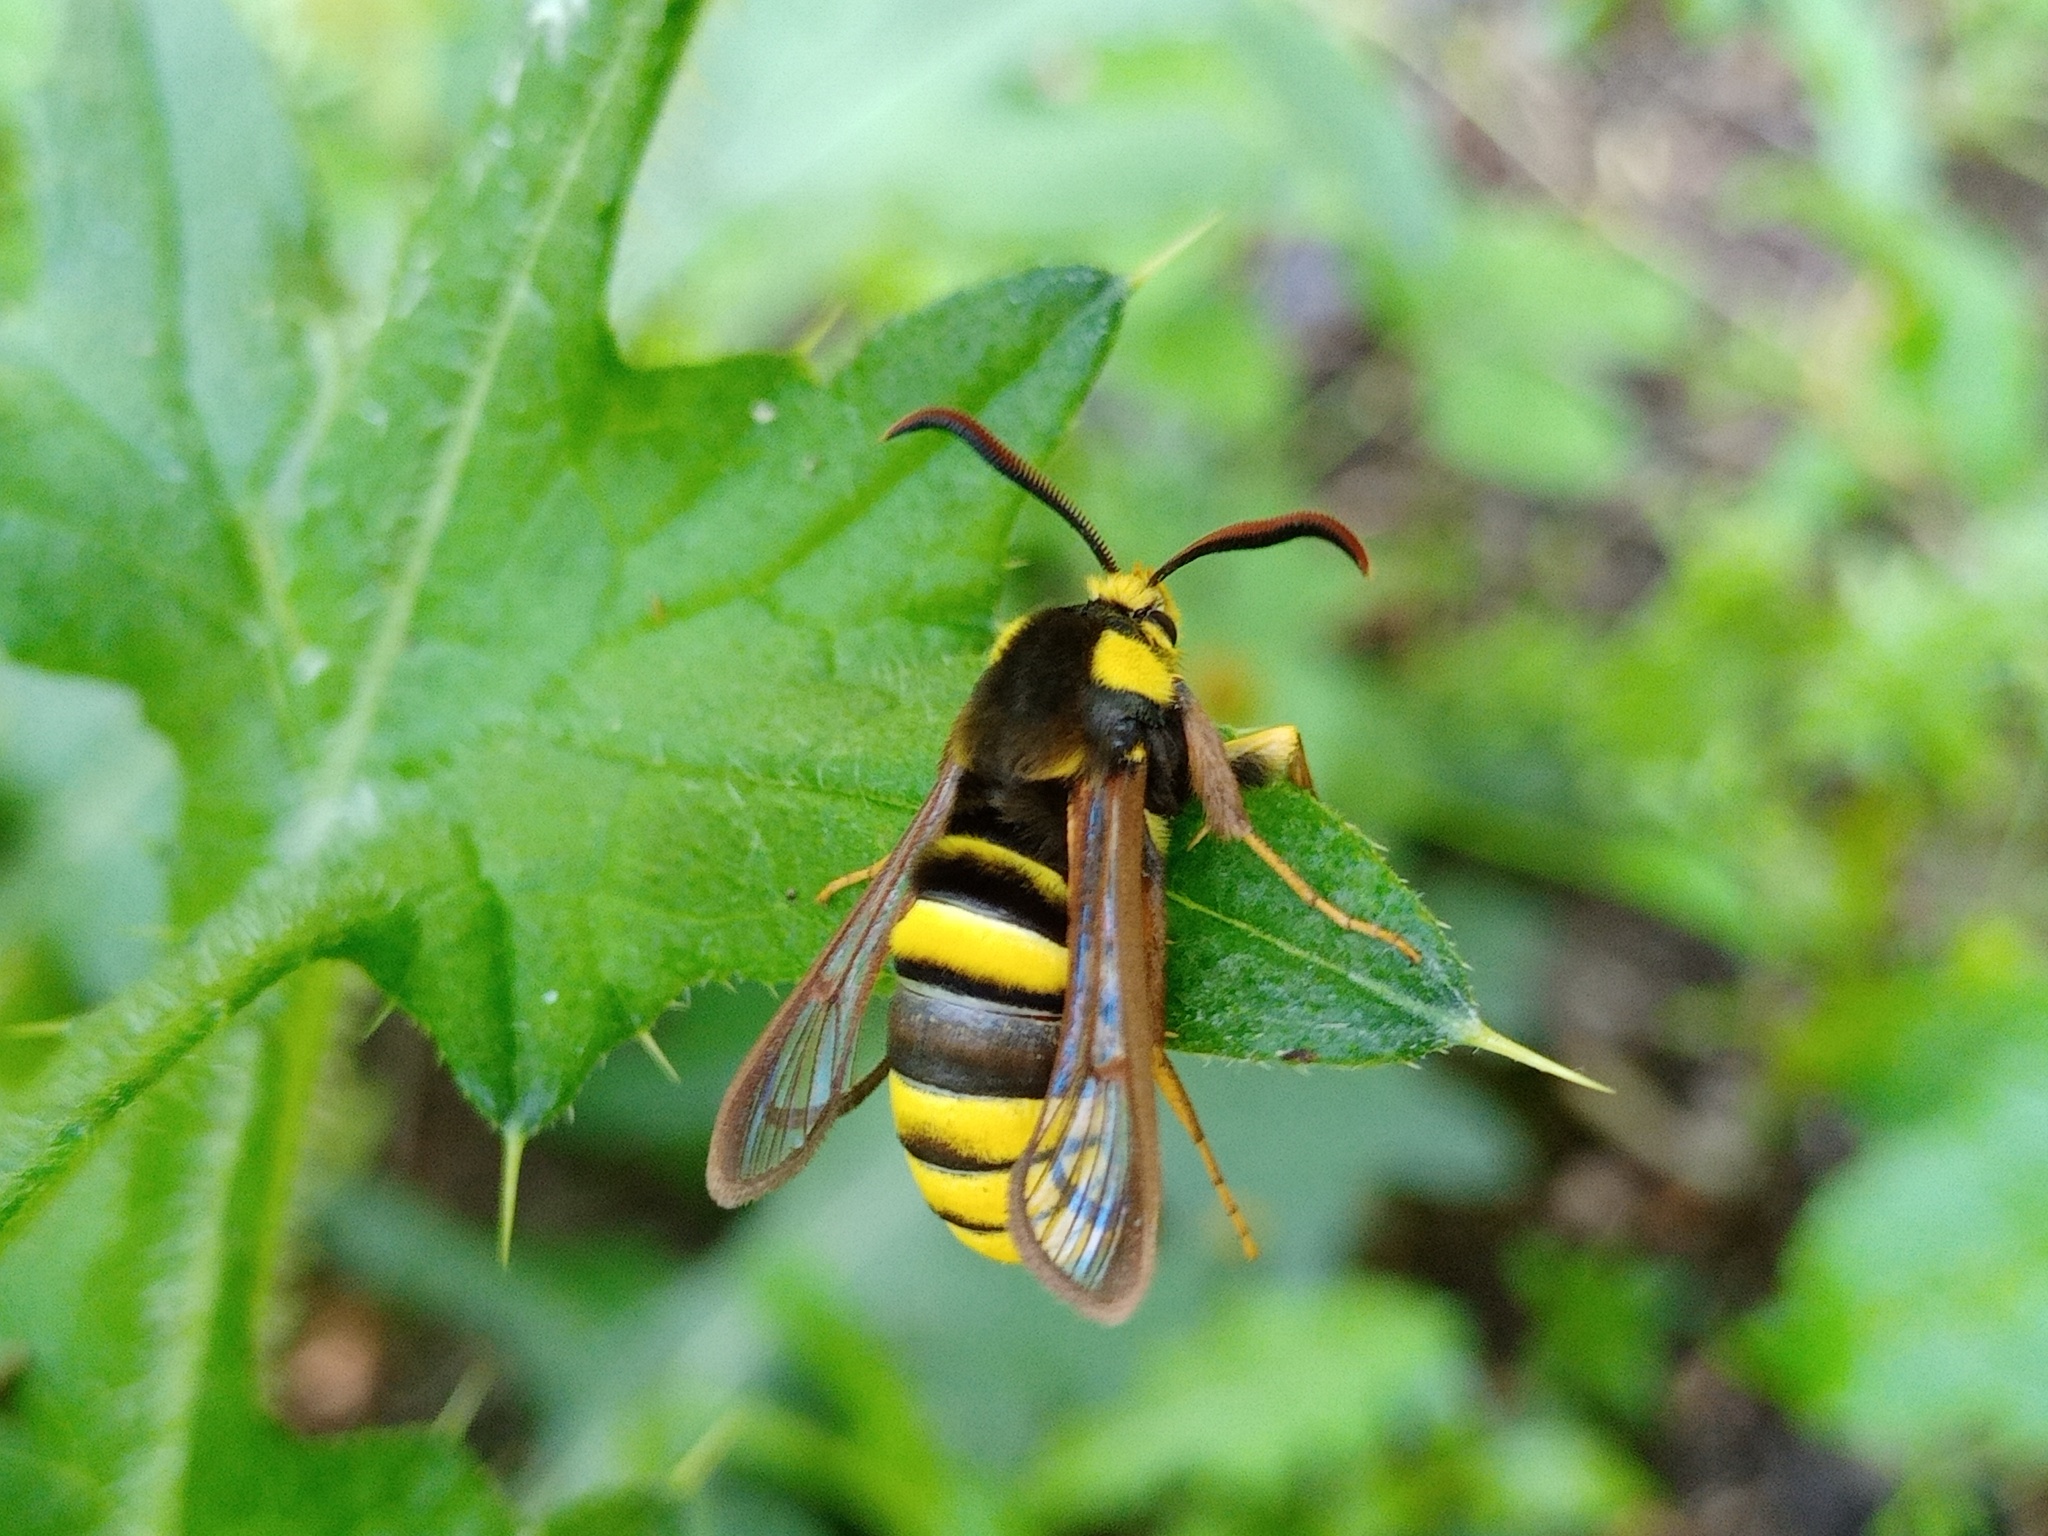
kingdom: Animalia
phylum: Arthropoda
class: Insecta
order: Lepidoptera
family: Sesiidae
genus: Sesia
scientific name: Sesia apiformis
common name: Hornet moth
